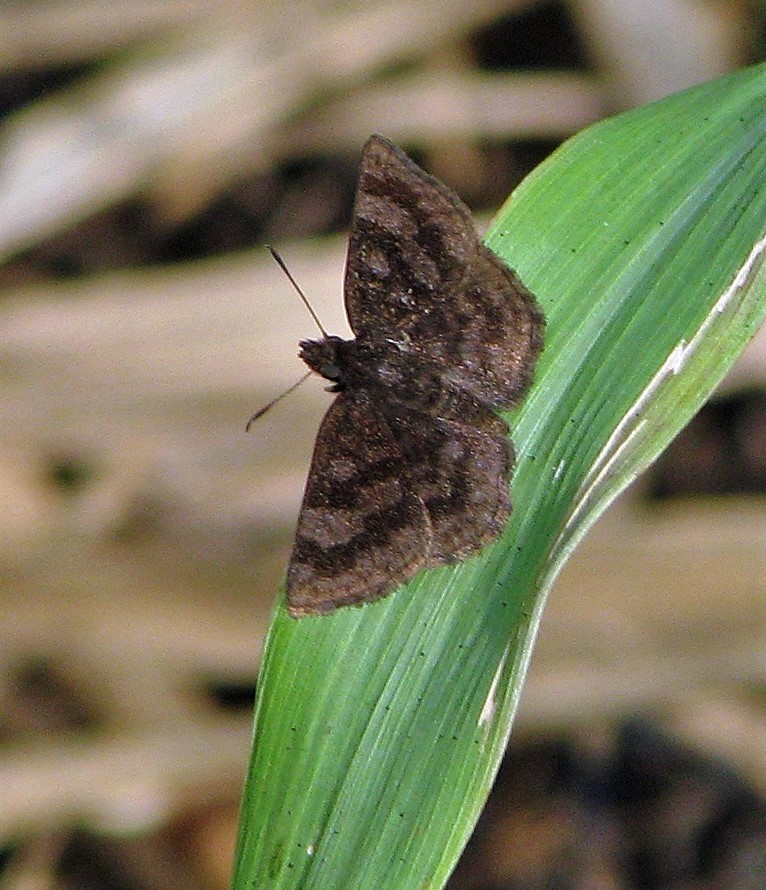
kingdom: Animalia
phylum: Arthropoda
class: Insecta
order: Lepidoptera
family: Hesperiidae
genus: Viola
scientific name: Viola minor
